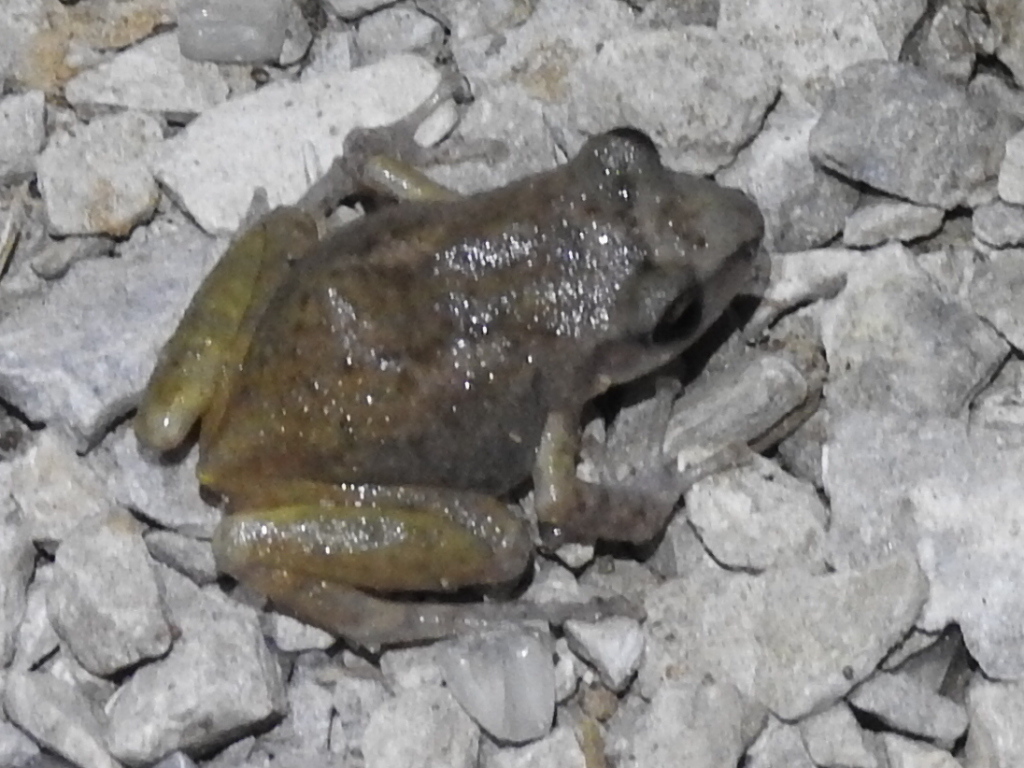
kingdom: Animalia
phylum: Chordata
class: Amphibia
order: Anura
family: Eleutherodactylidae
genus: Eleutherodactylus
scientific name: Eleutherodactylus campi
